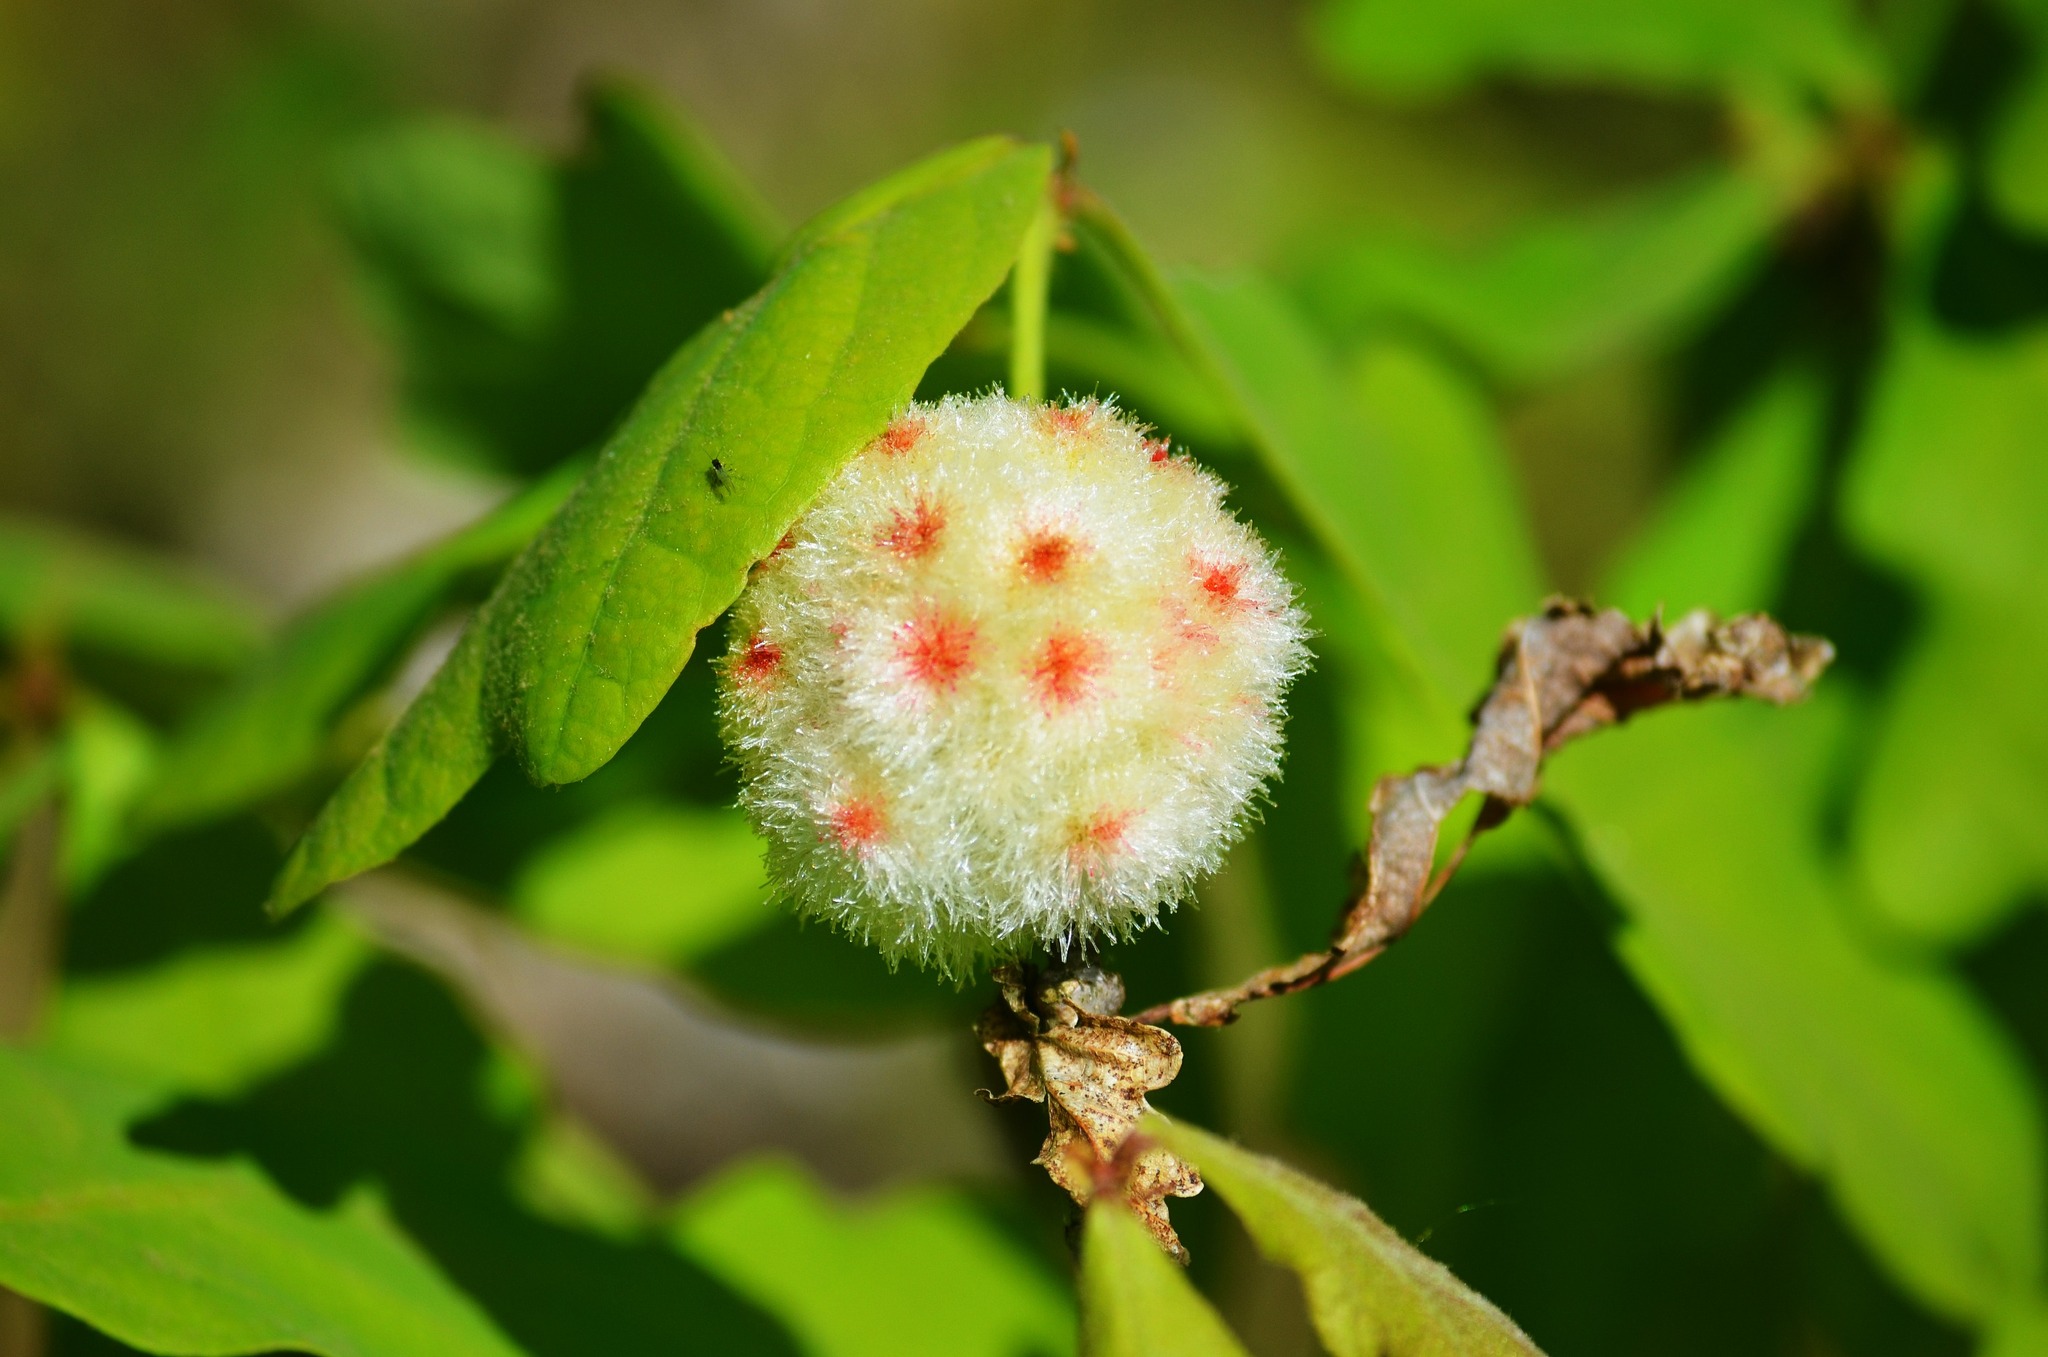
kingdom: Animalia
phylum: Arthropoda
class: Insecta
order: Hymenoptera
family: Cynipidae
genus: Callirhytis
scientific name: Callirhytis
